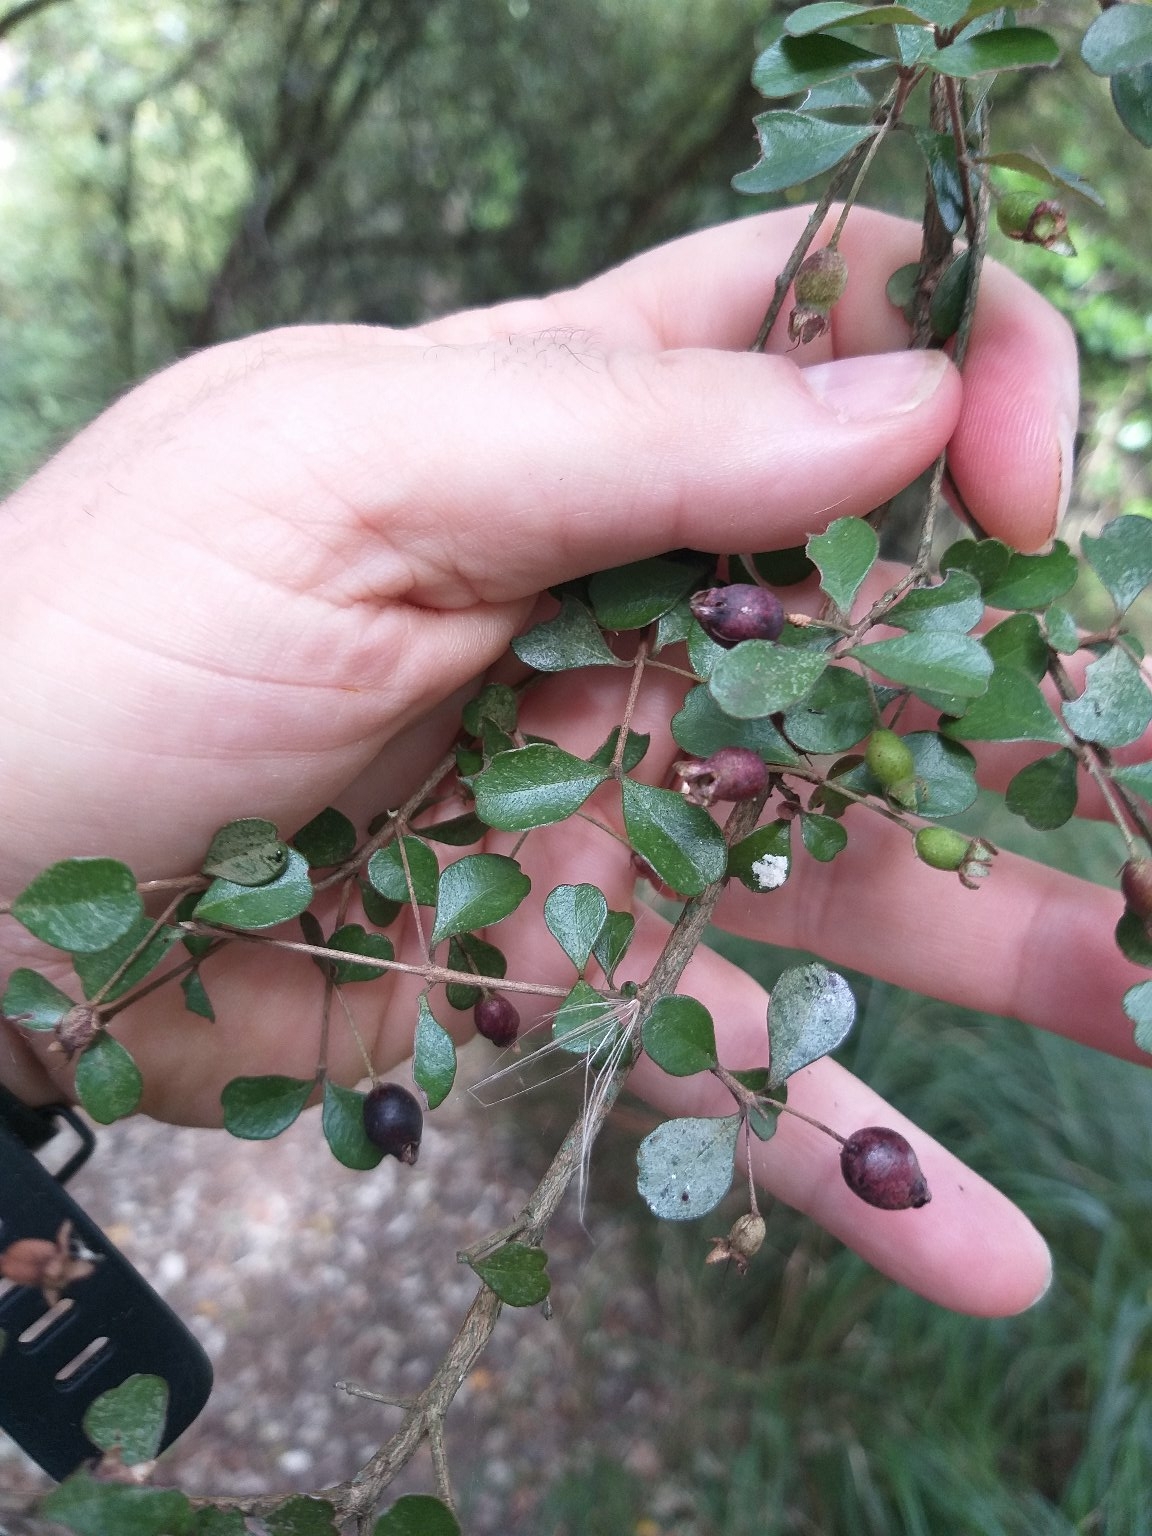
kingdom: Plantae
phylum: Tracheophyta
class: Magnoliopsida
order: Myrtales
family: Myrtaceae
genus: Lophomyrtus
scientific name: Lophomyrtus obcordata
